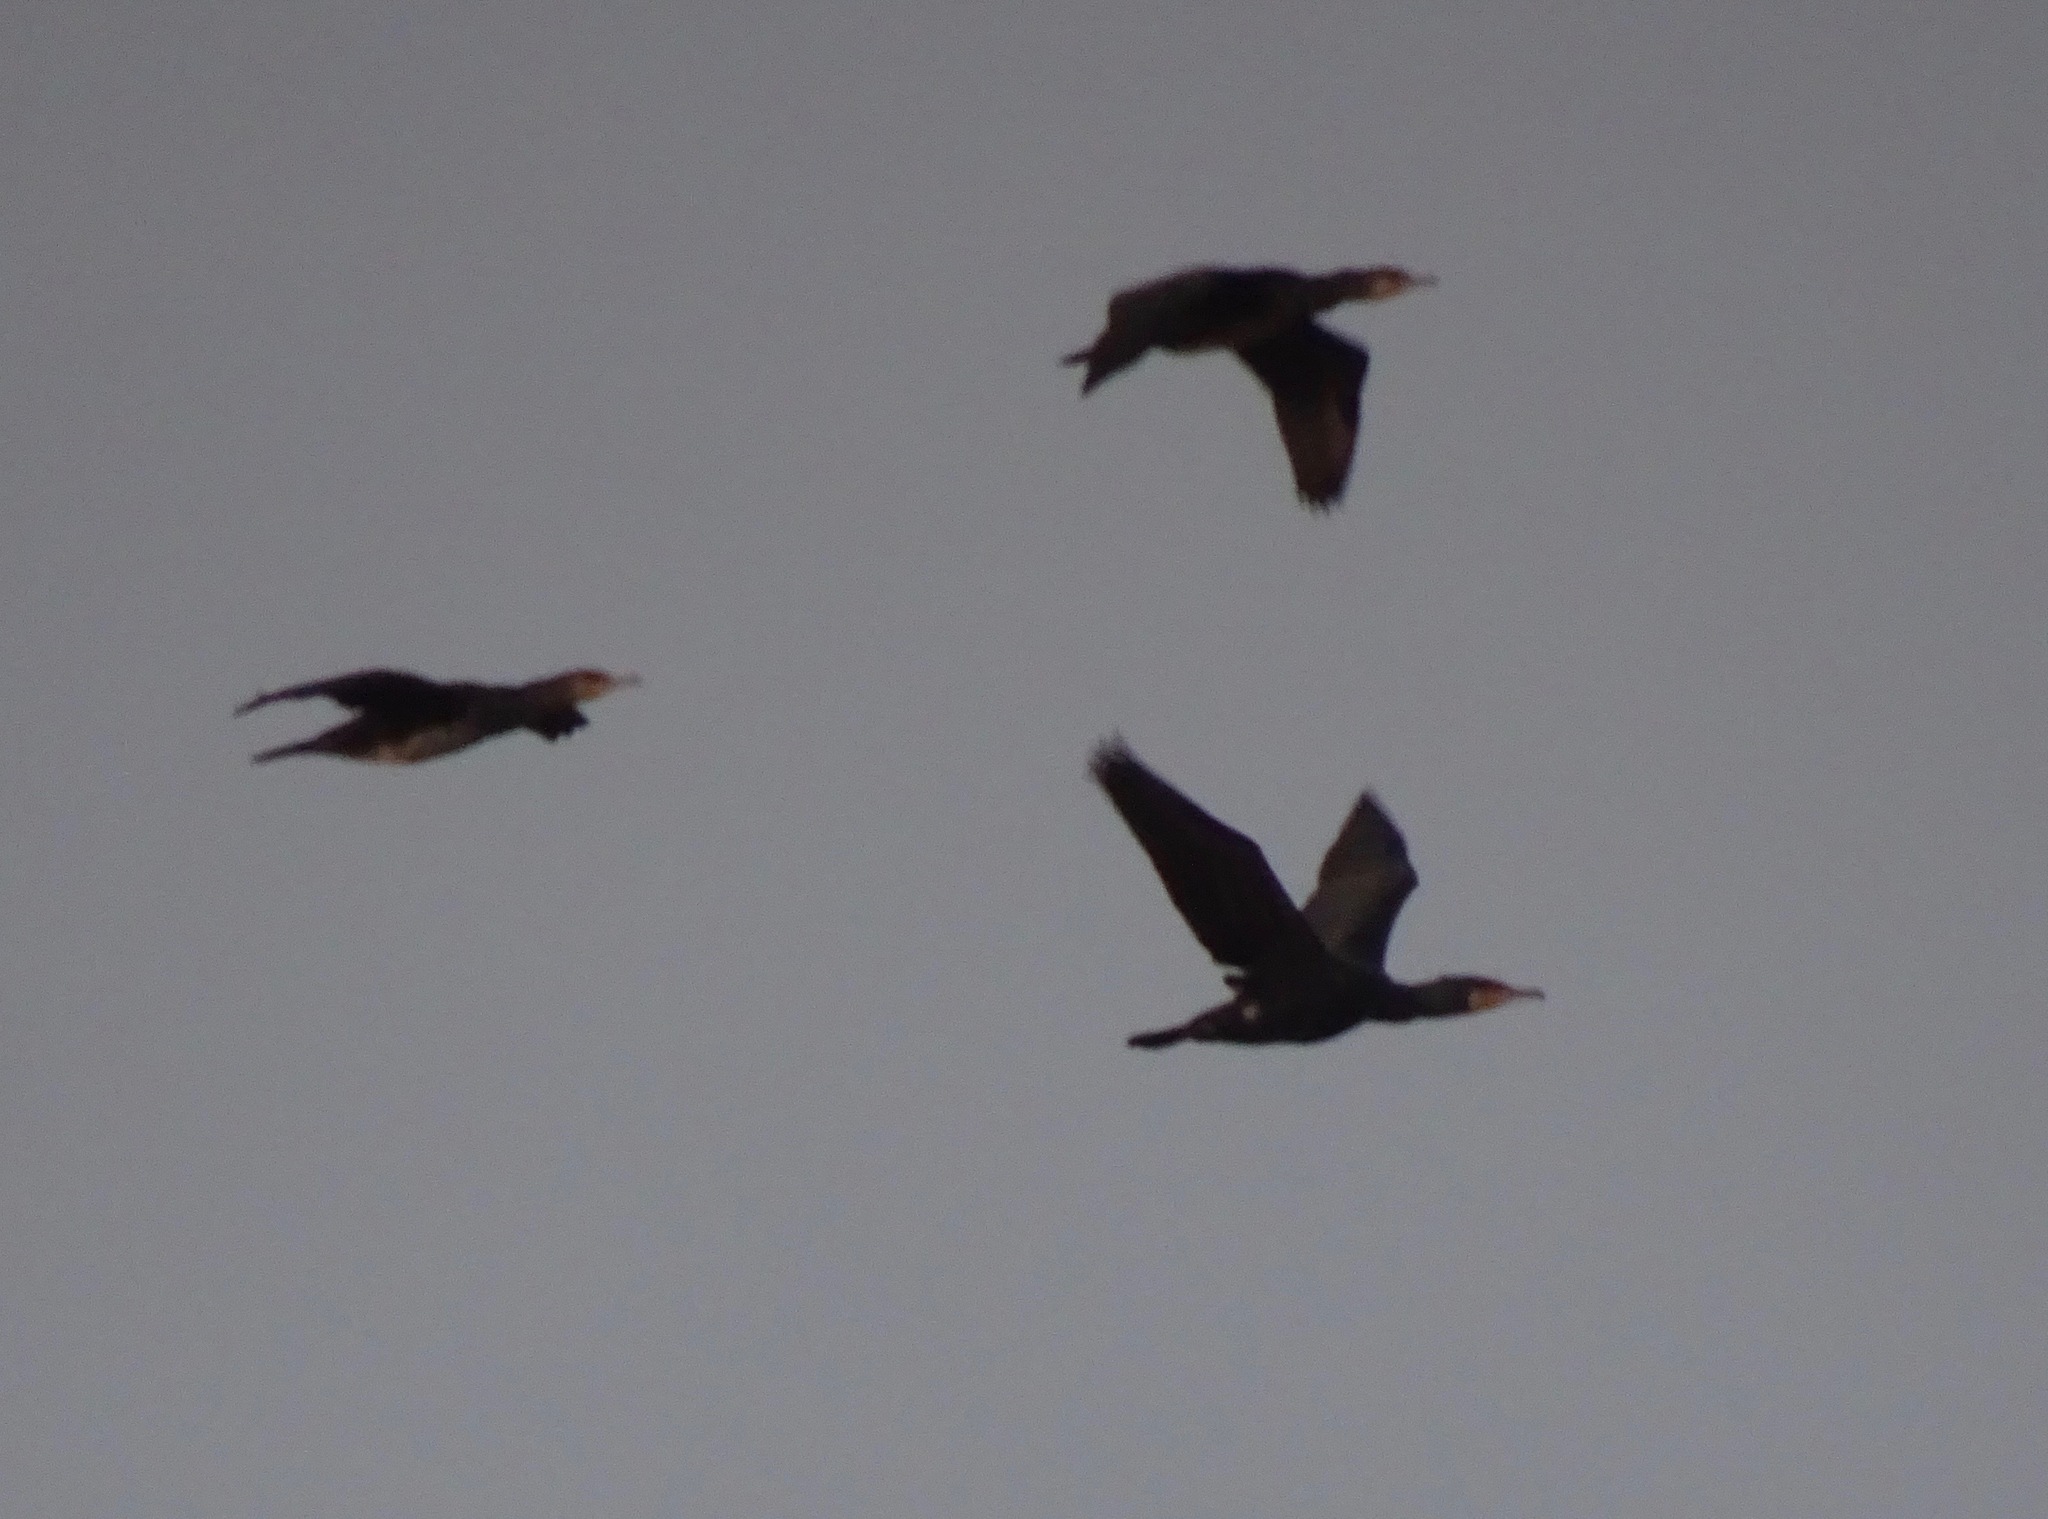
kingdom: Animalia
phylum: Chordata
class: Aves
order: Suliformes
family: Phalacrocoracidae
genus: Phalacrocorax
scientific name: Phalacrocorax carbo
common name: Great cormorant
